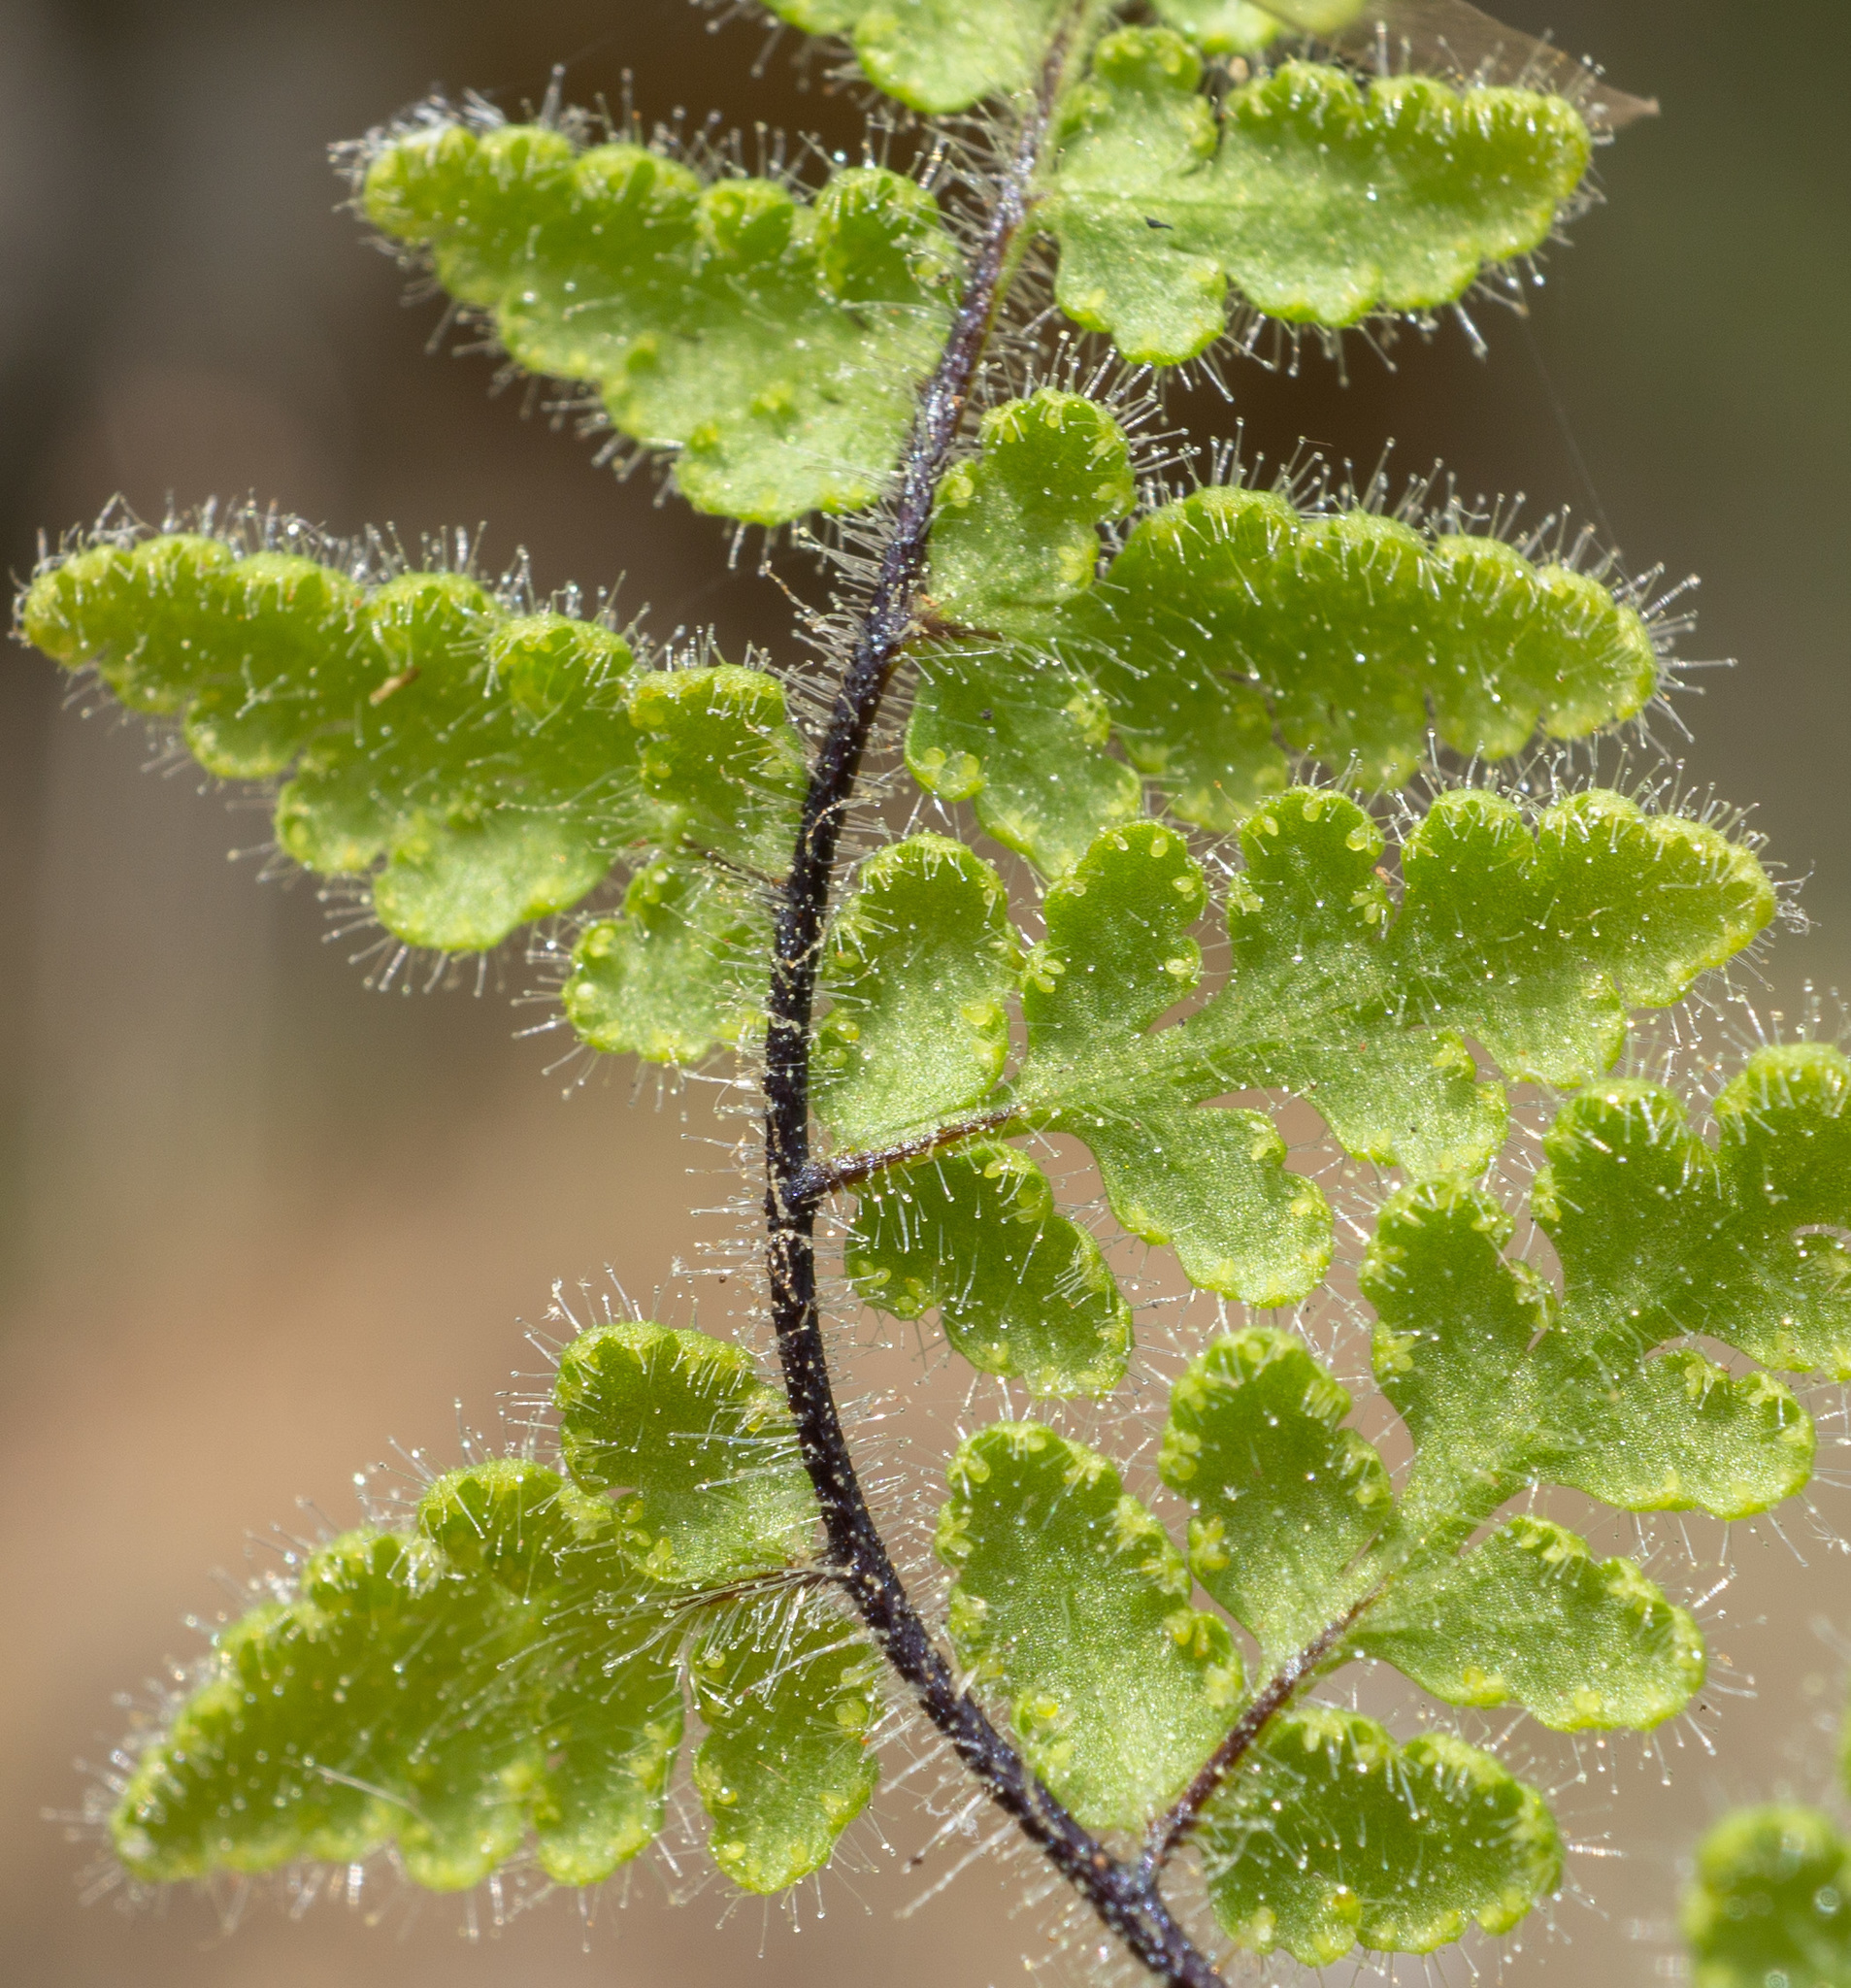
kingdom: Plantae
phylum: Tracheophyta
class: Polypodiopsida
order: Polypodiales
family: Pteridaceae
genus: Myriopteris
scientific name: Myriopteris cooperae
